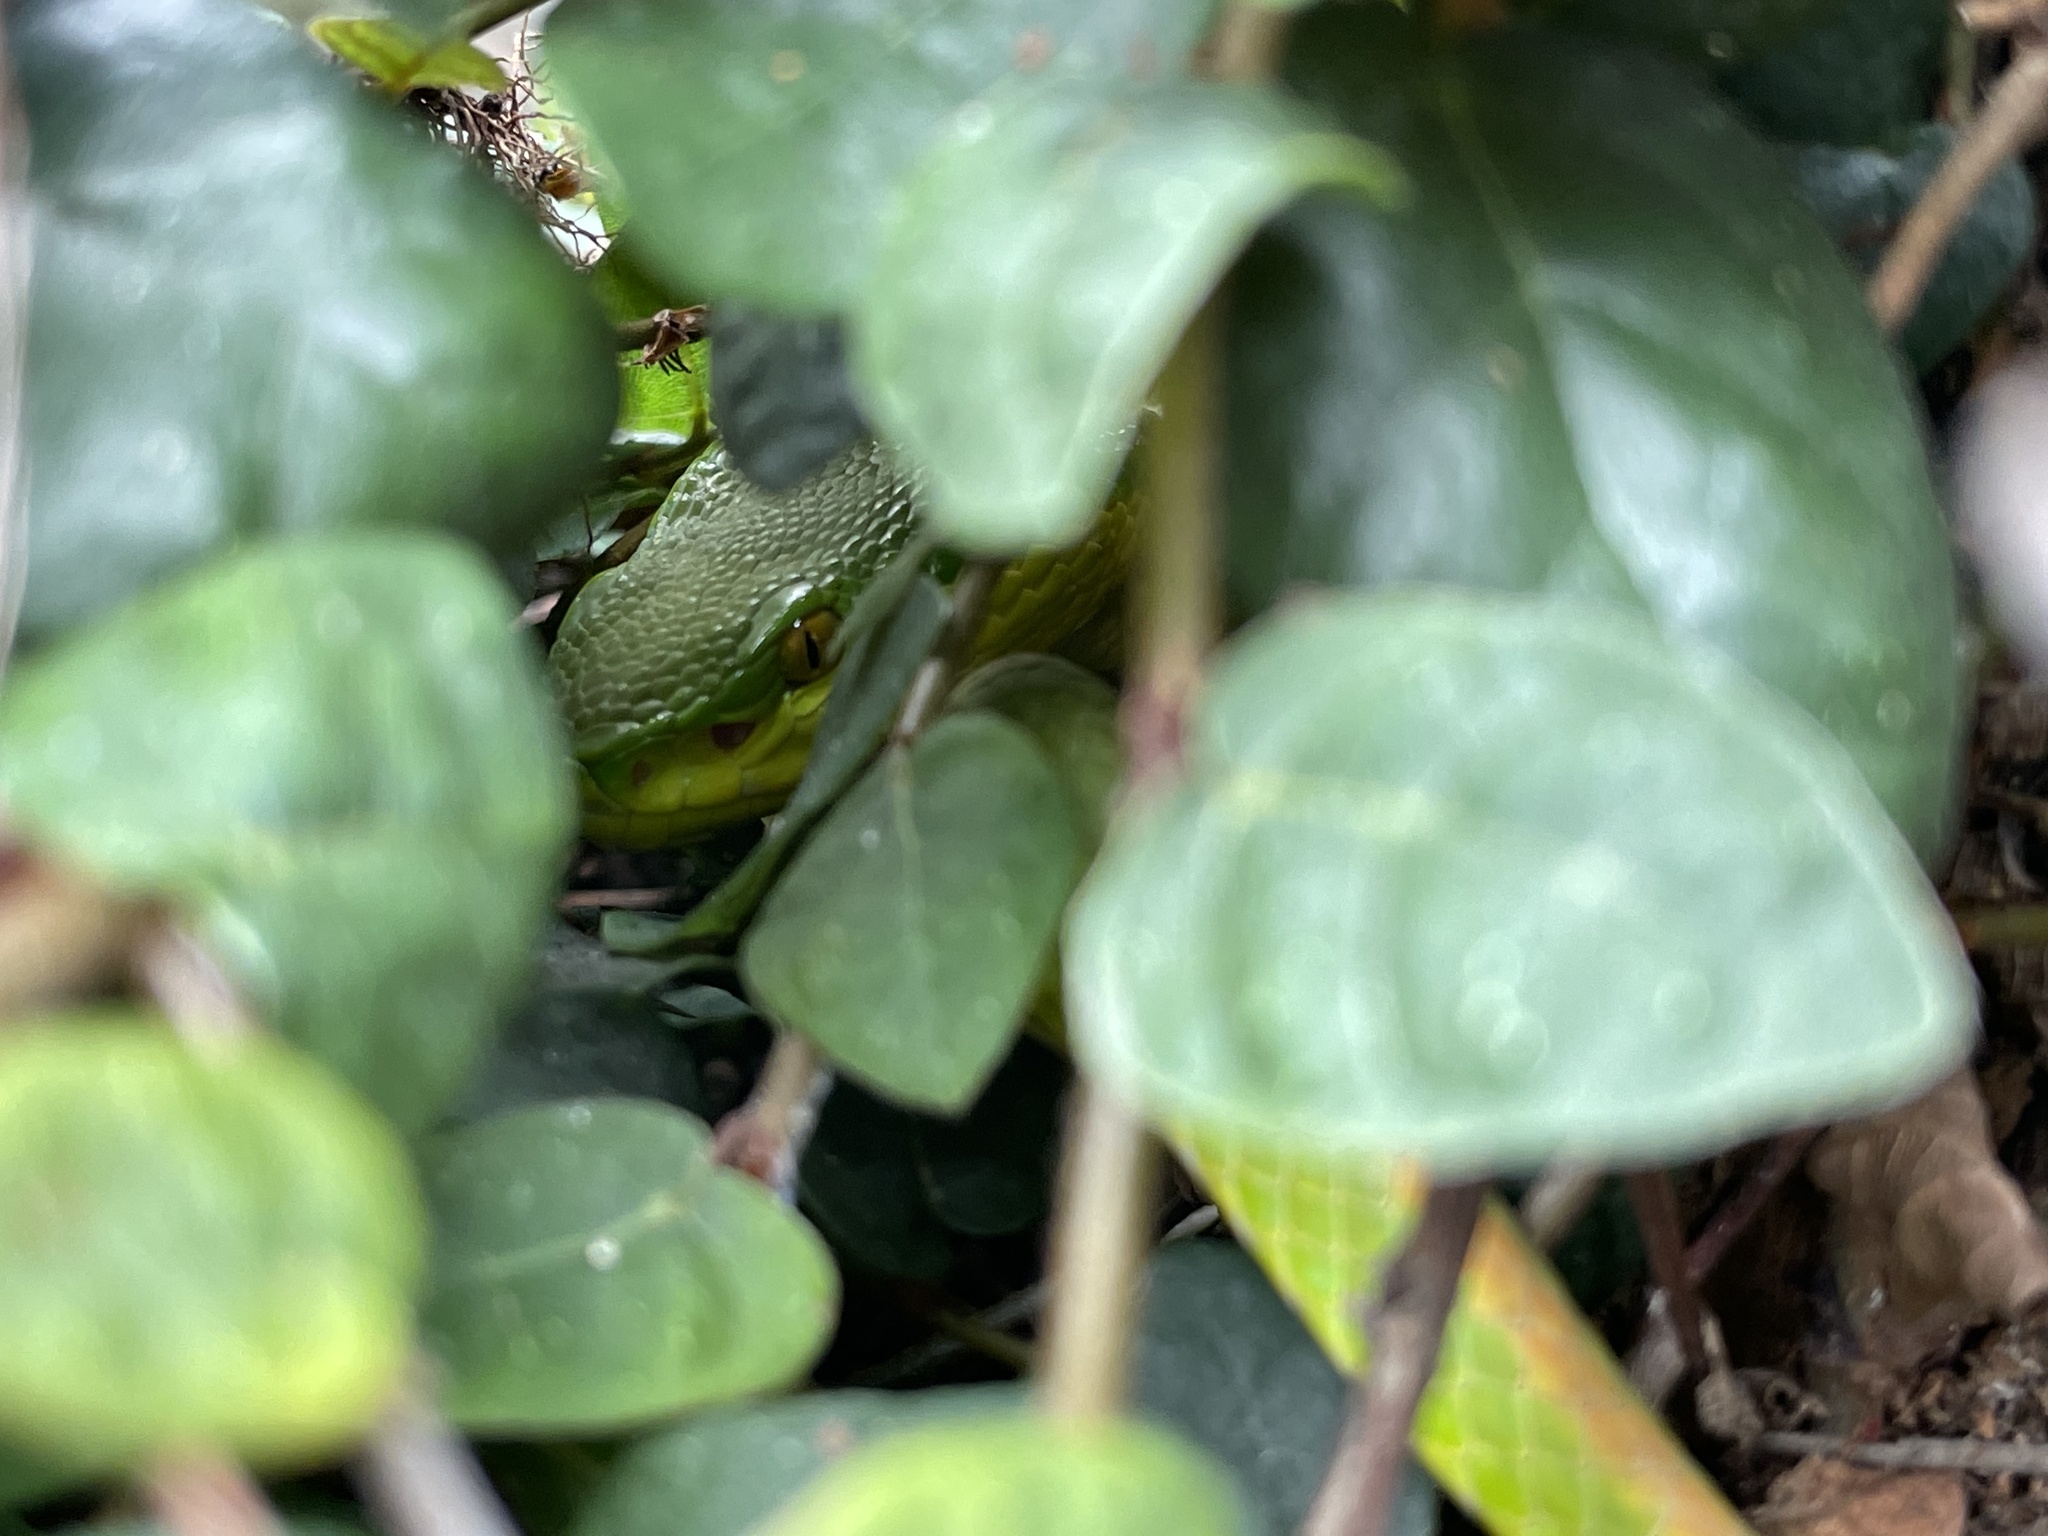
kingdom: Animalia
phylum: Chordata
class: Squamata
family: Viperidae
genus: Trimeresurus
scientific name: Trimeresurus albolabris
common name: White-lipped pitviper
